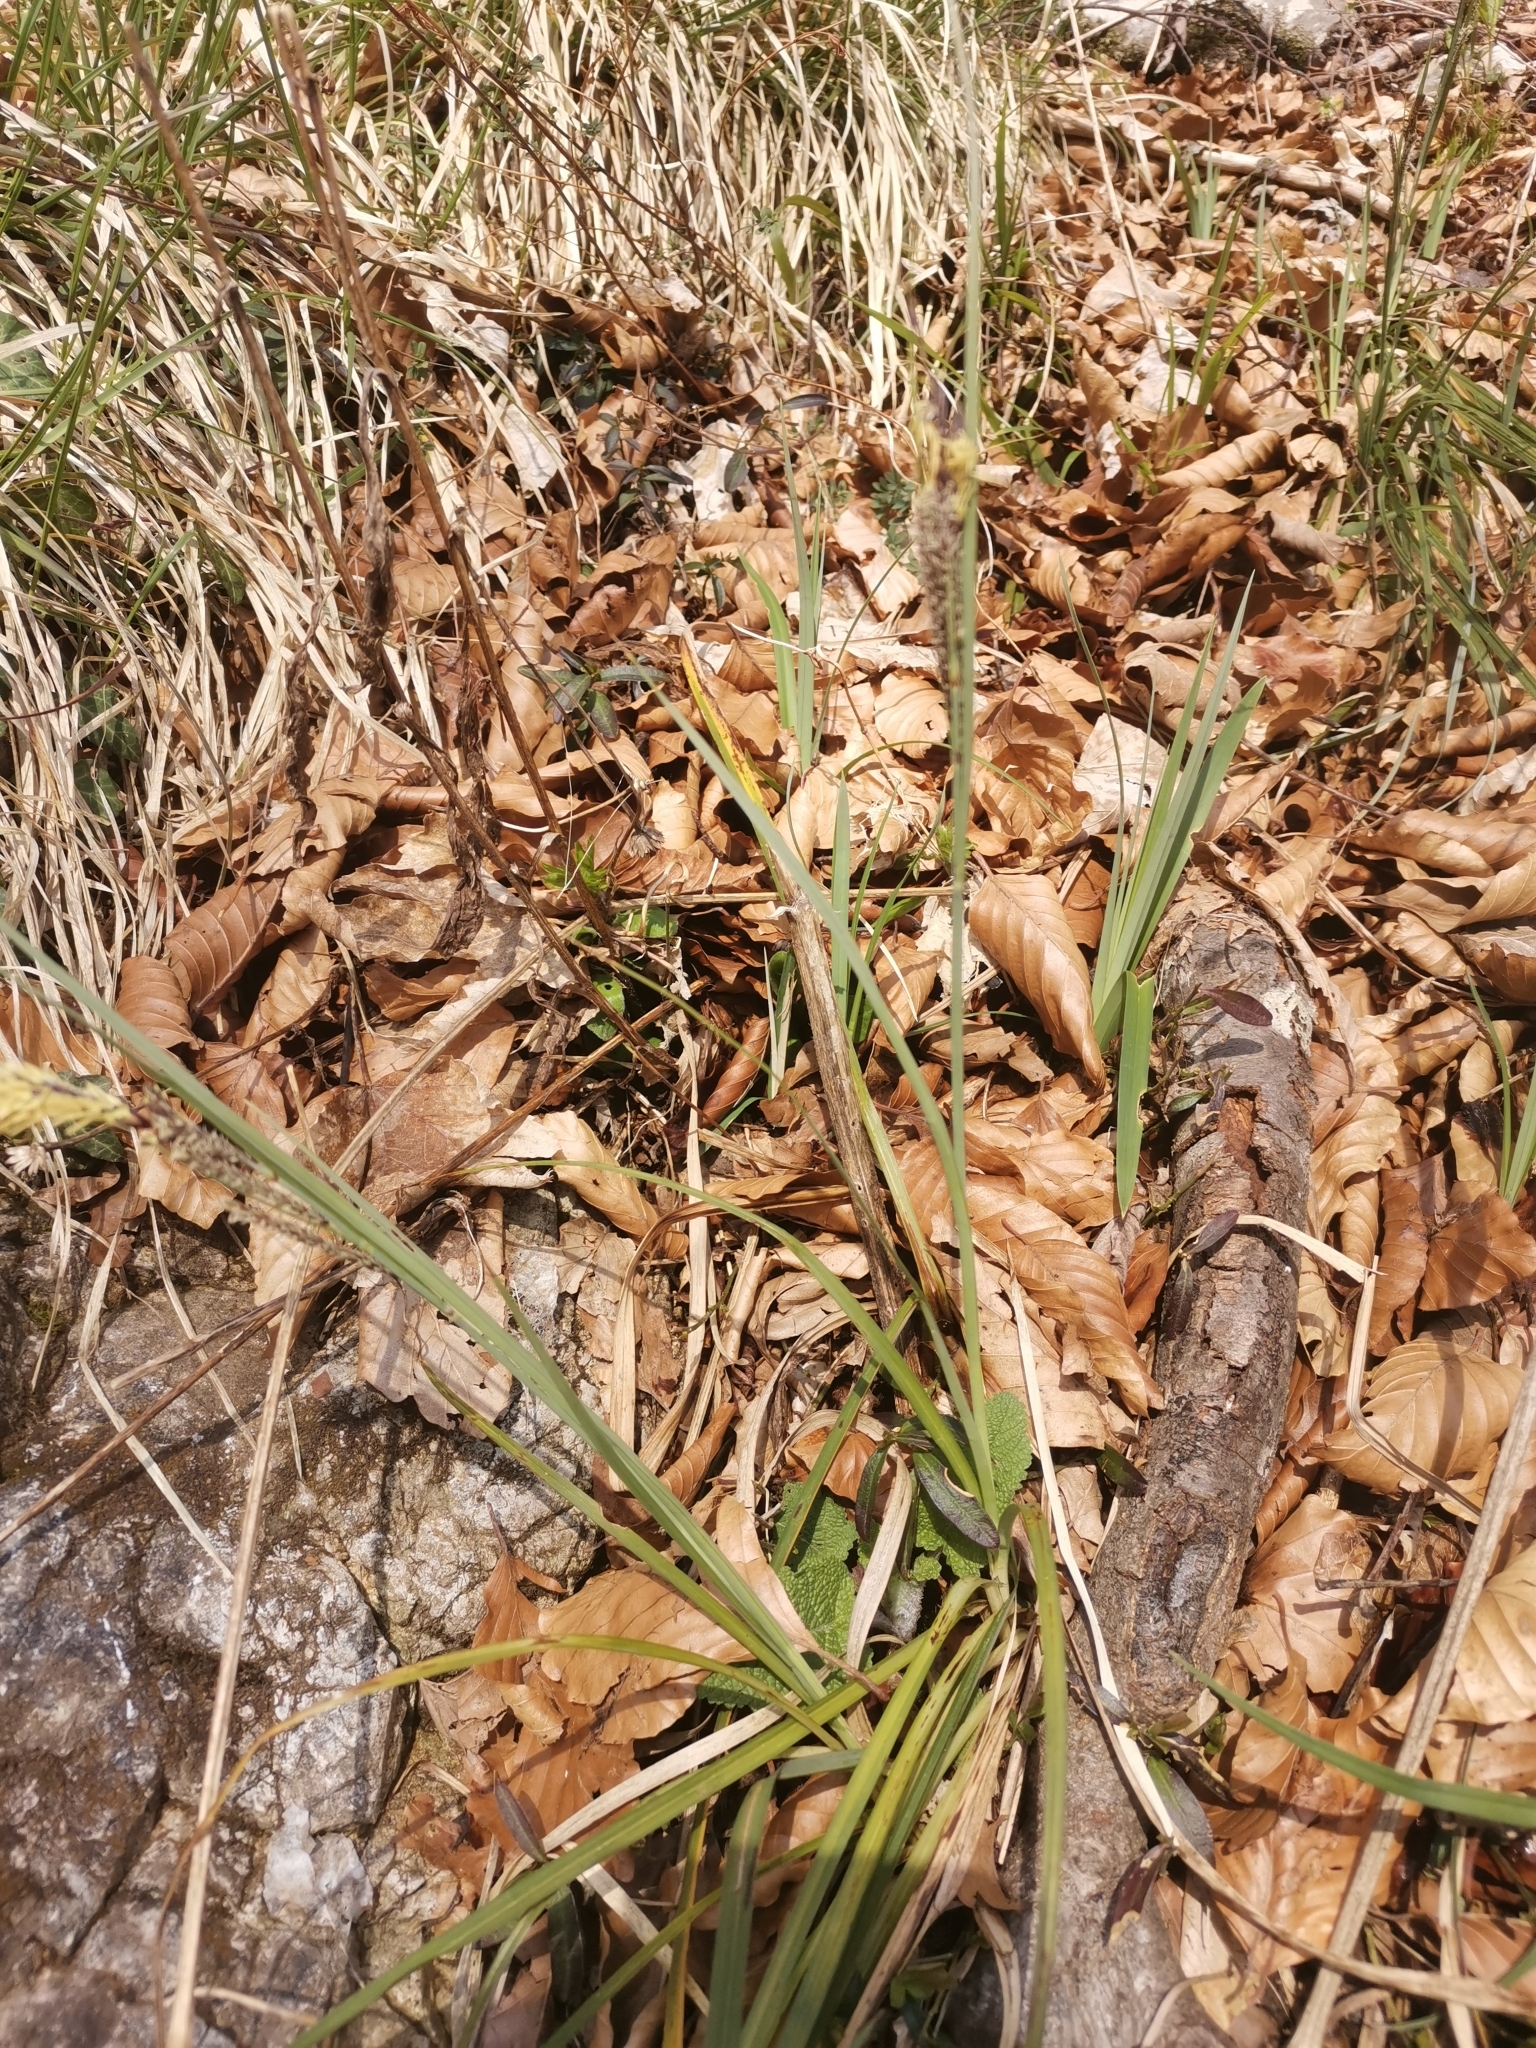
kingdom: Plantae
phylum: Tracheophyta
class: Liliopsida
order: Poales
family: Cyperaceae
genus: Carex
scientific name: Carex flacca
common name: Glaucous sedge
